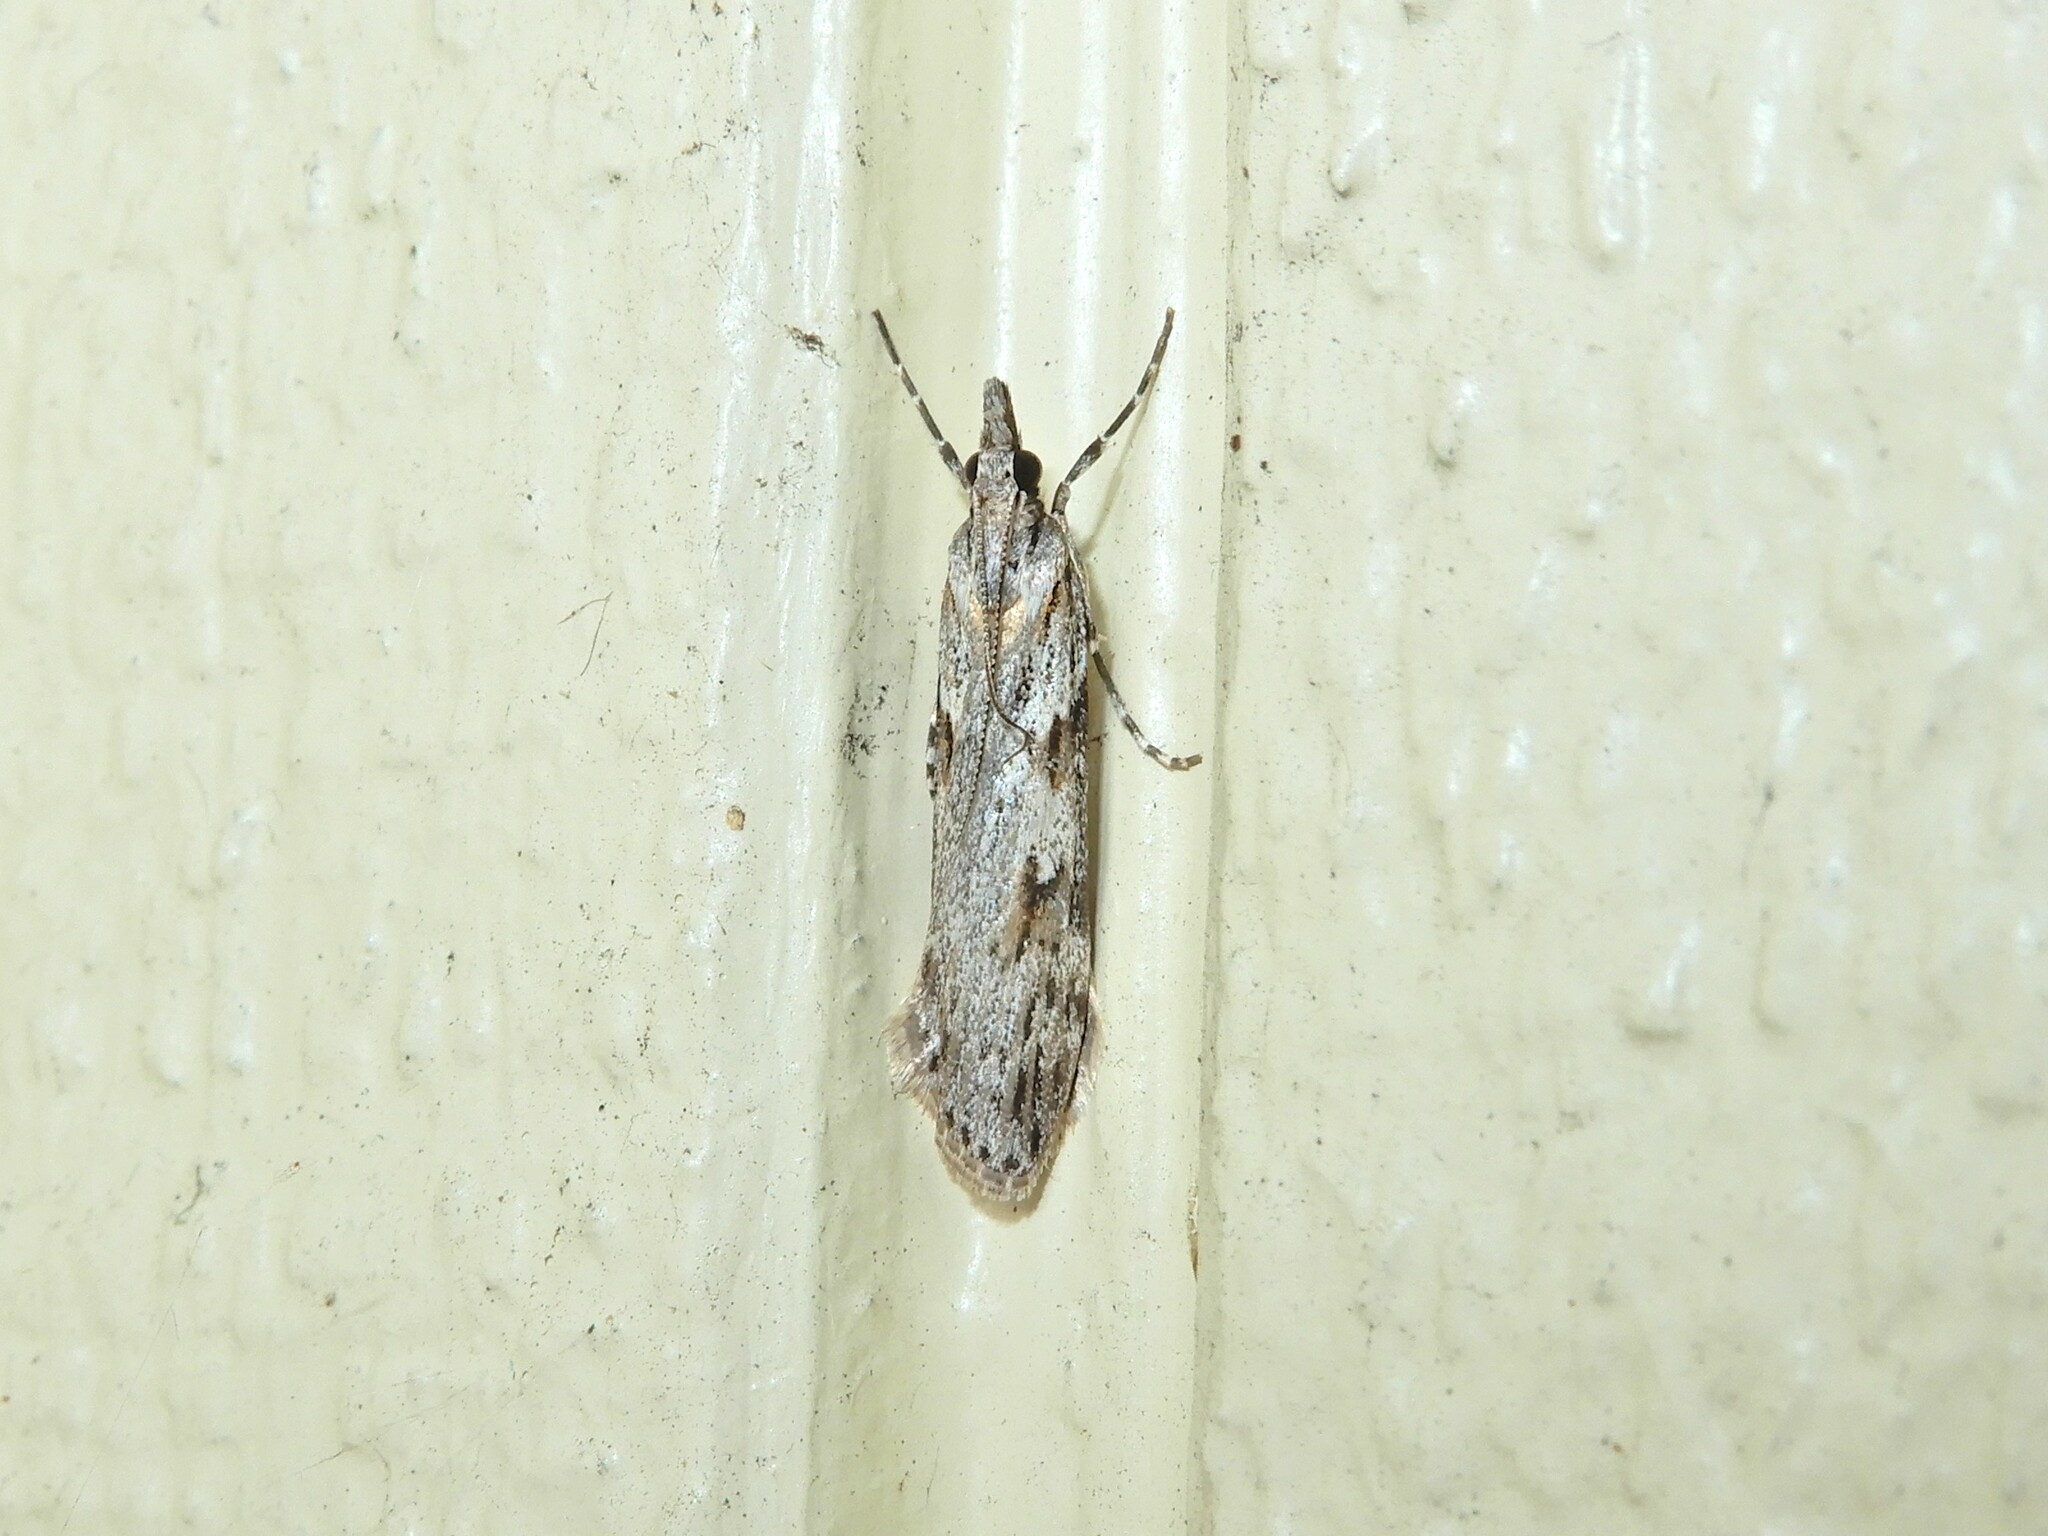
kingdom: Animalia
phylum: Arthropoda
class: Insecta
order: Lepidoptera
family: Crambidae
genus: Scoparia
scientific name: Scoparia halopis
